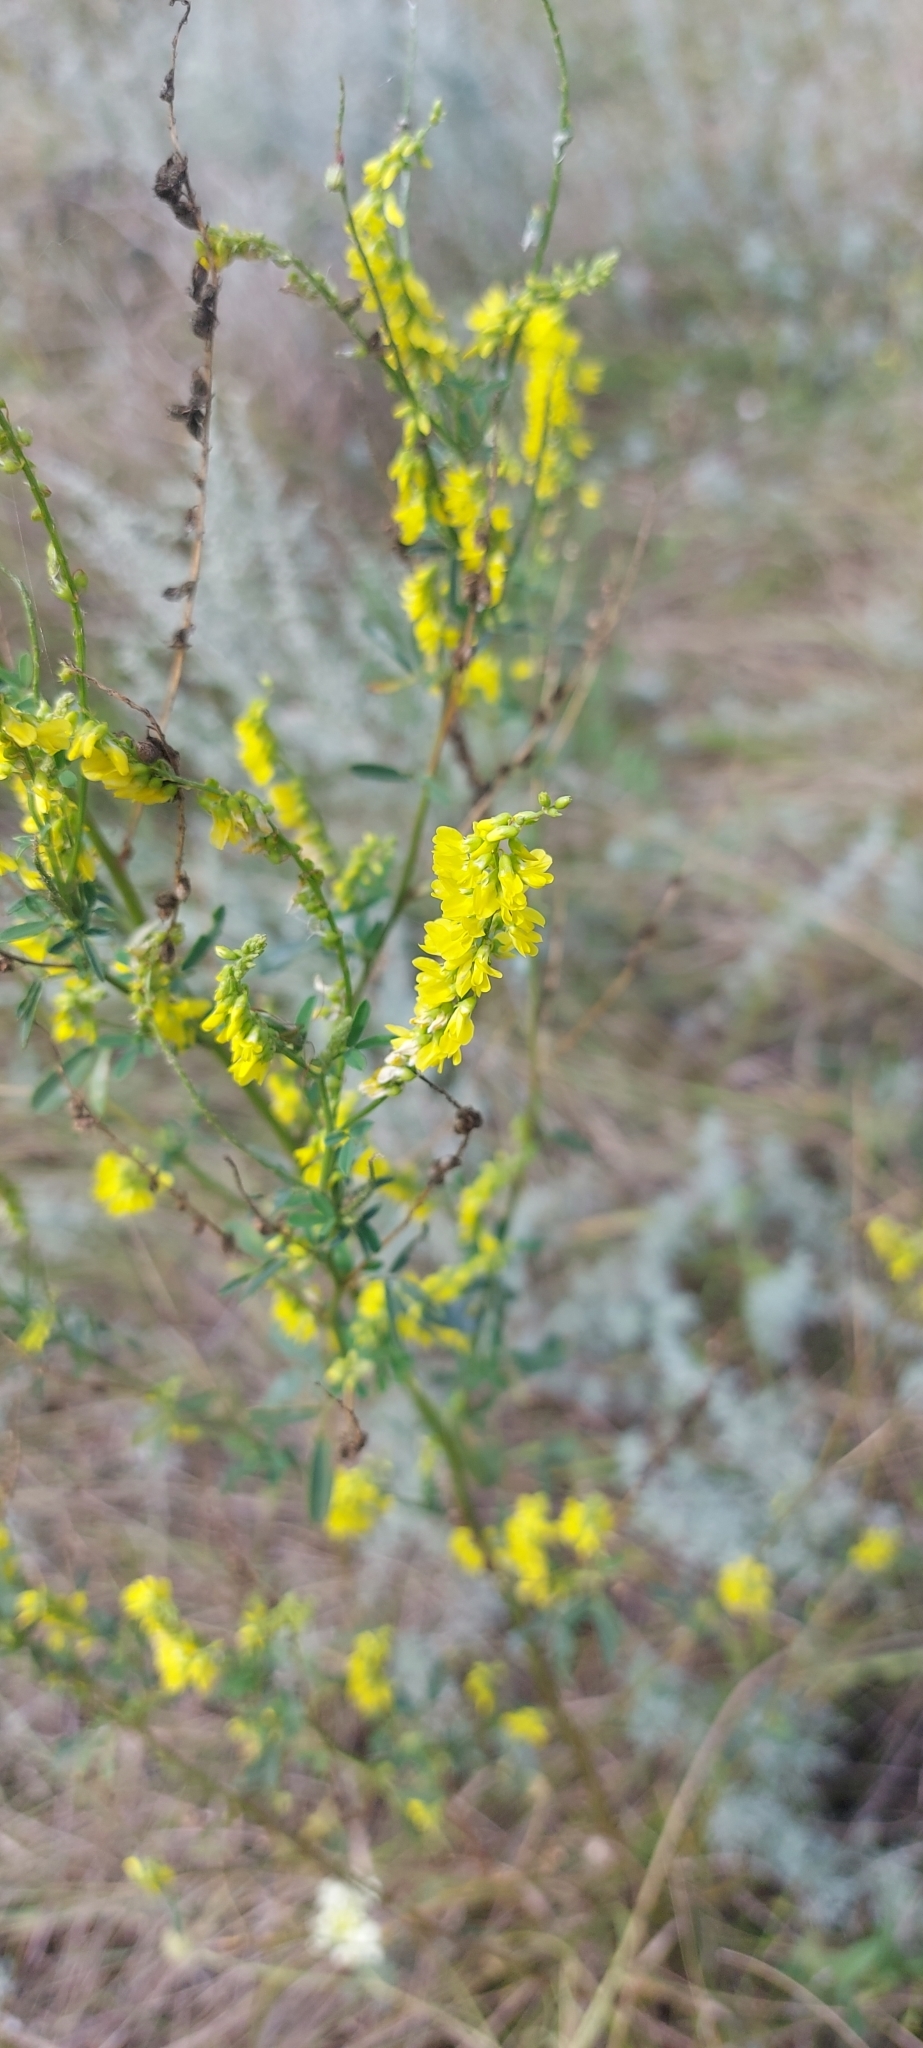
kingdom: Plantae
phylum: Tracheophyta
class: Magnoliopsida
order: Fabales
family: Fabaceae
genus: Melilotus
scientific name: Melilotus officinalis
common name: Sweetclover
